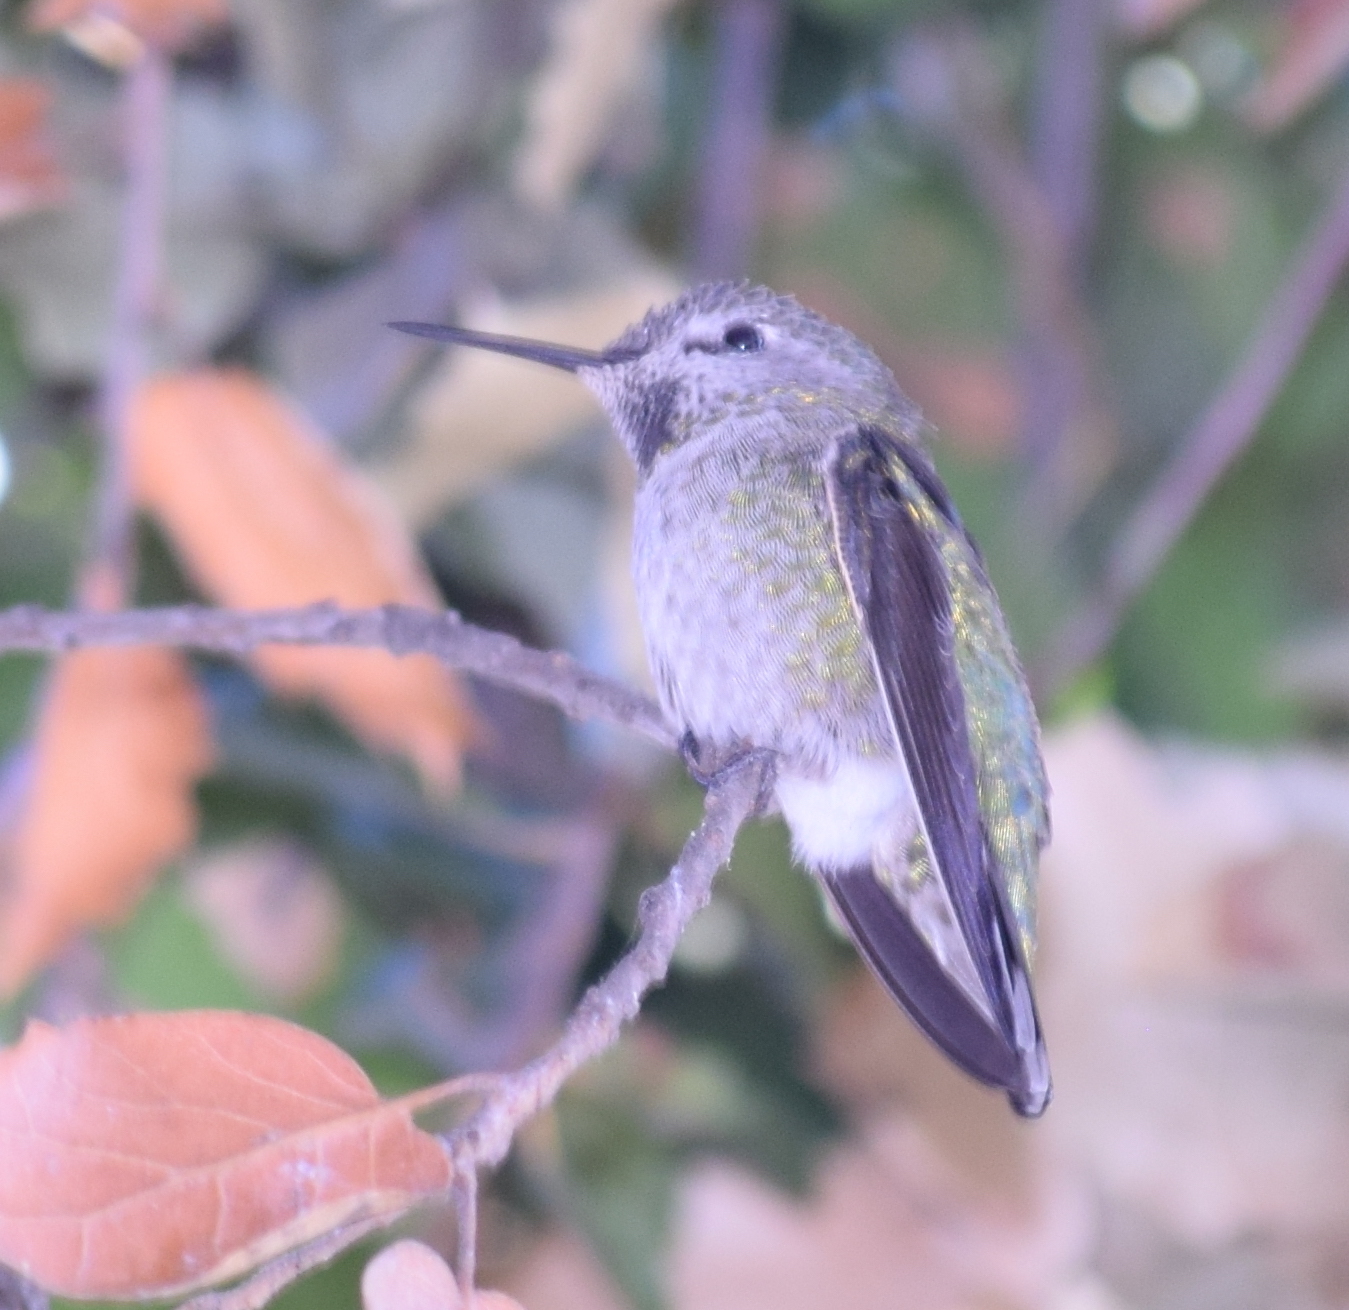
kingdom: Animalia
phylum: Chordata
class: Aves
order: Apodiformes
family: Trochilidae
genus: Calypte
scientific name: Calypte anna
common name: Anna's hummingbird
